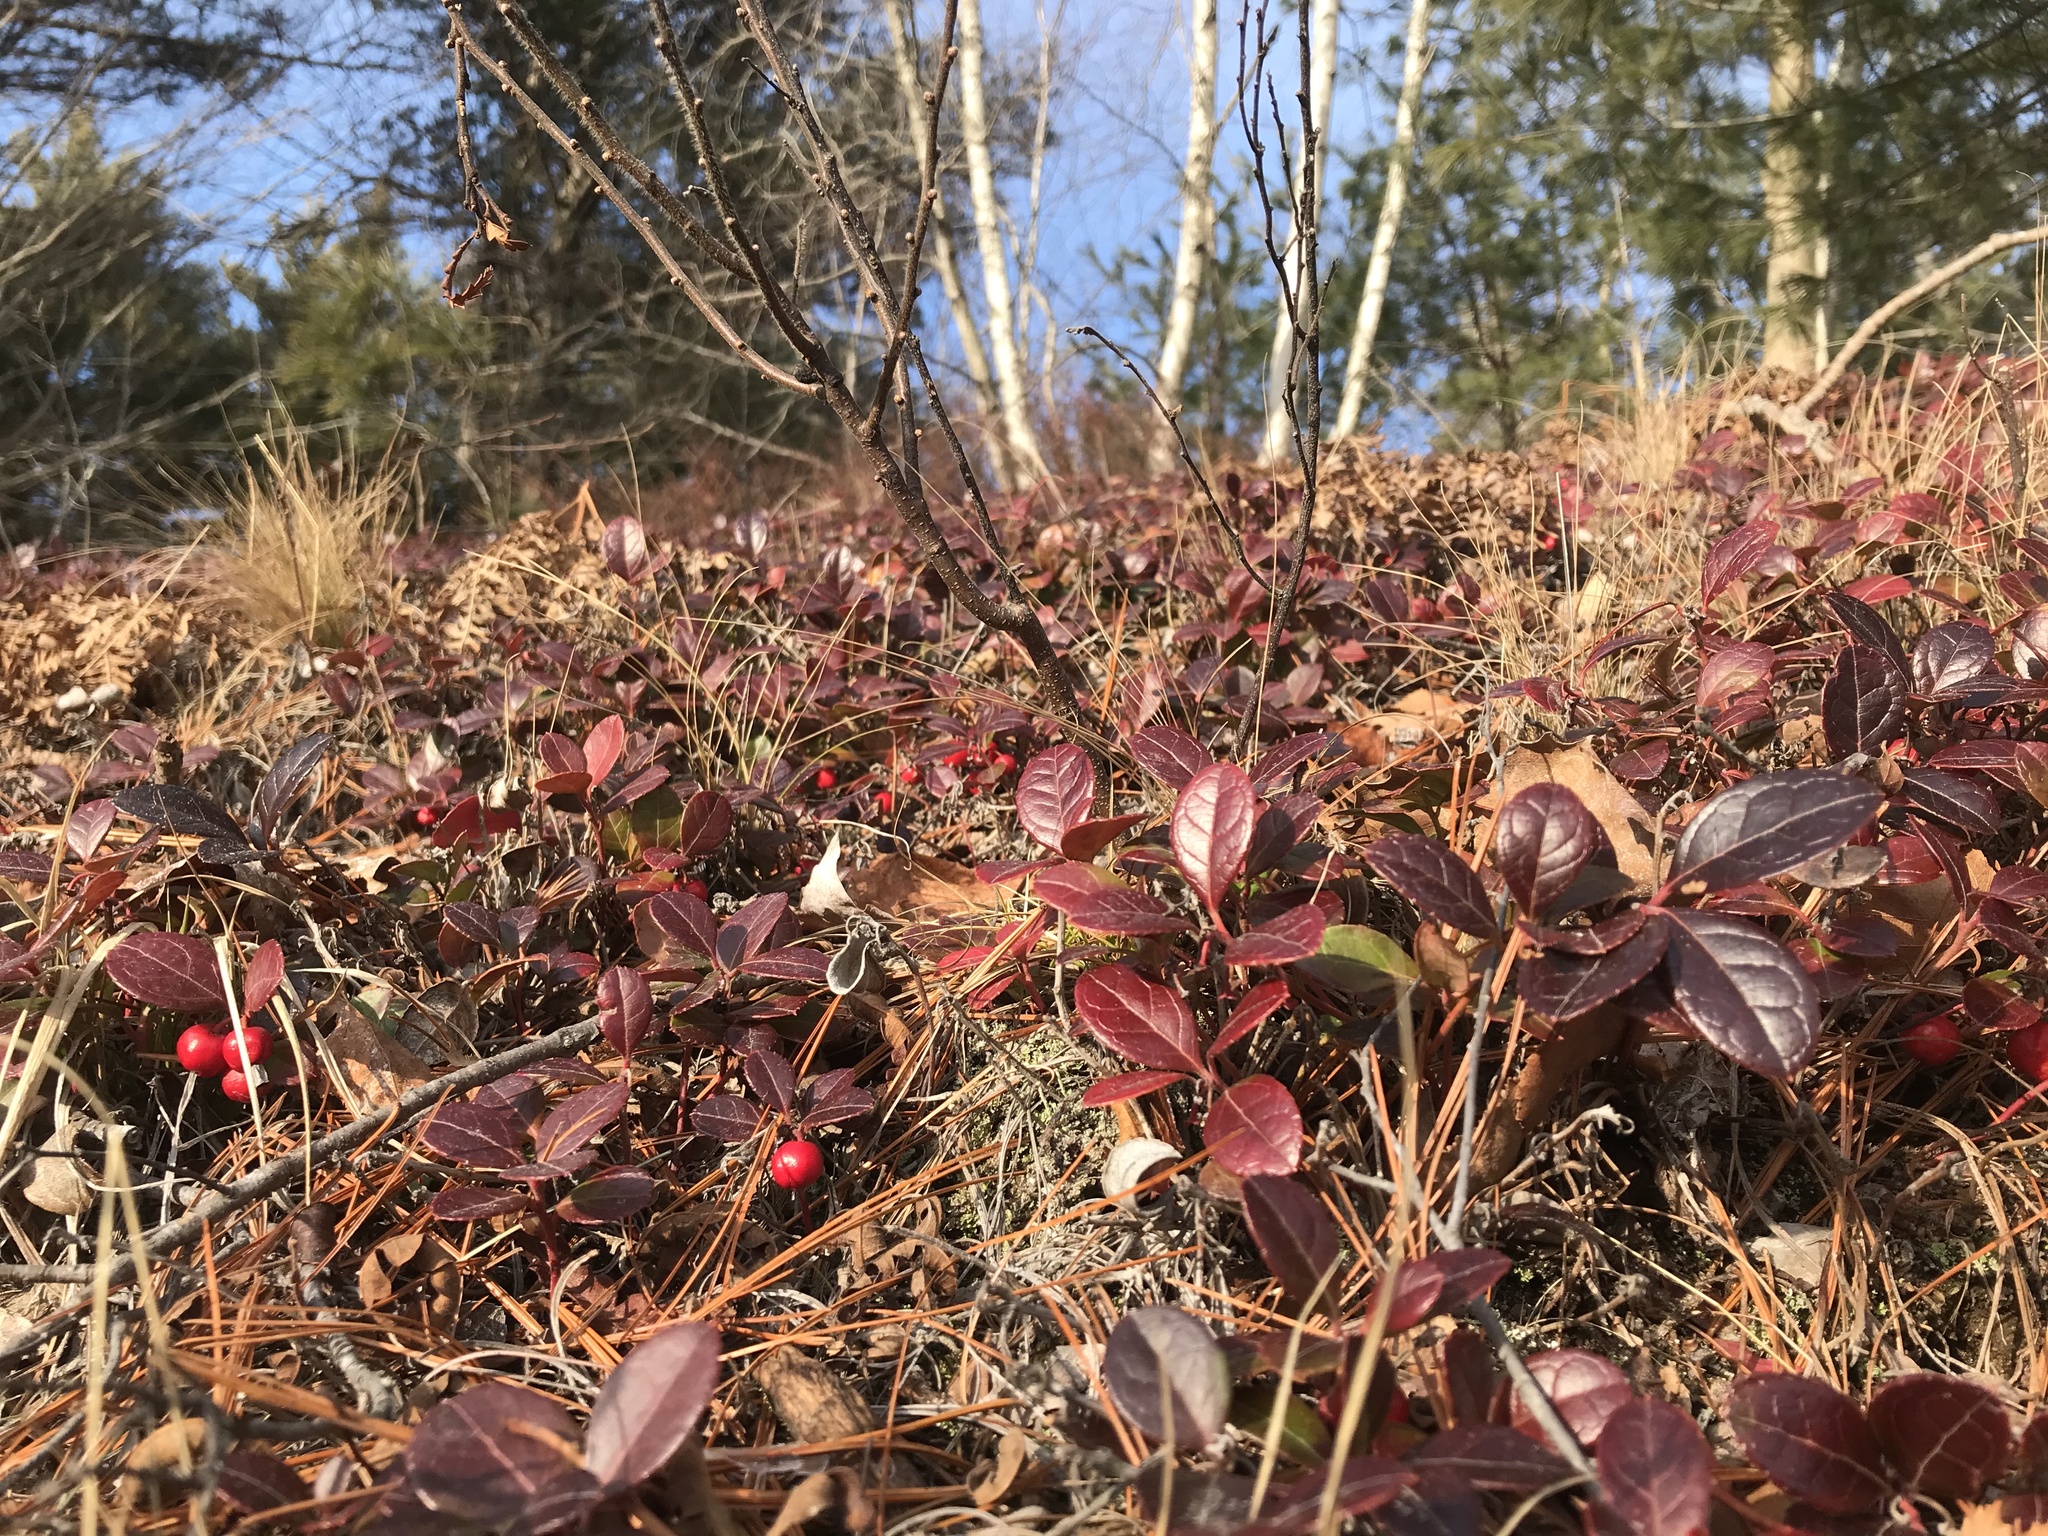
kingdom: Plantae
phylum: Tracheophyta
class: Magnoliopsida
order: Ericales
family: Ericaceae
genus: Gaultheria
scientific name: Gaultheria procumbens
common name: Checkerberry
